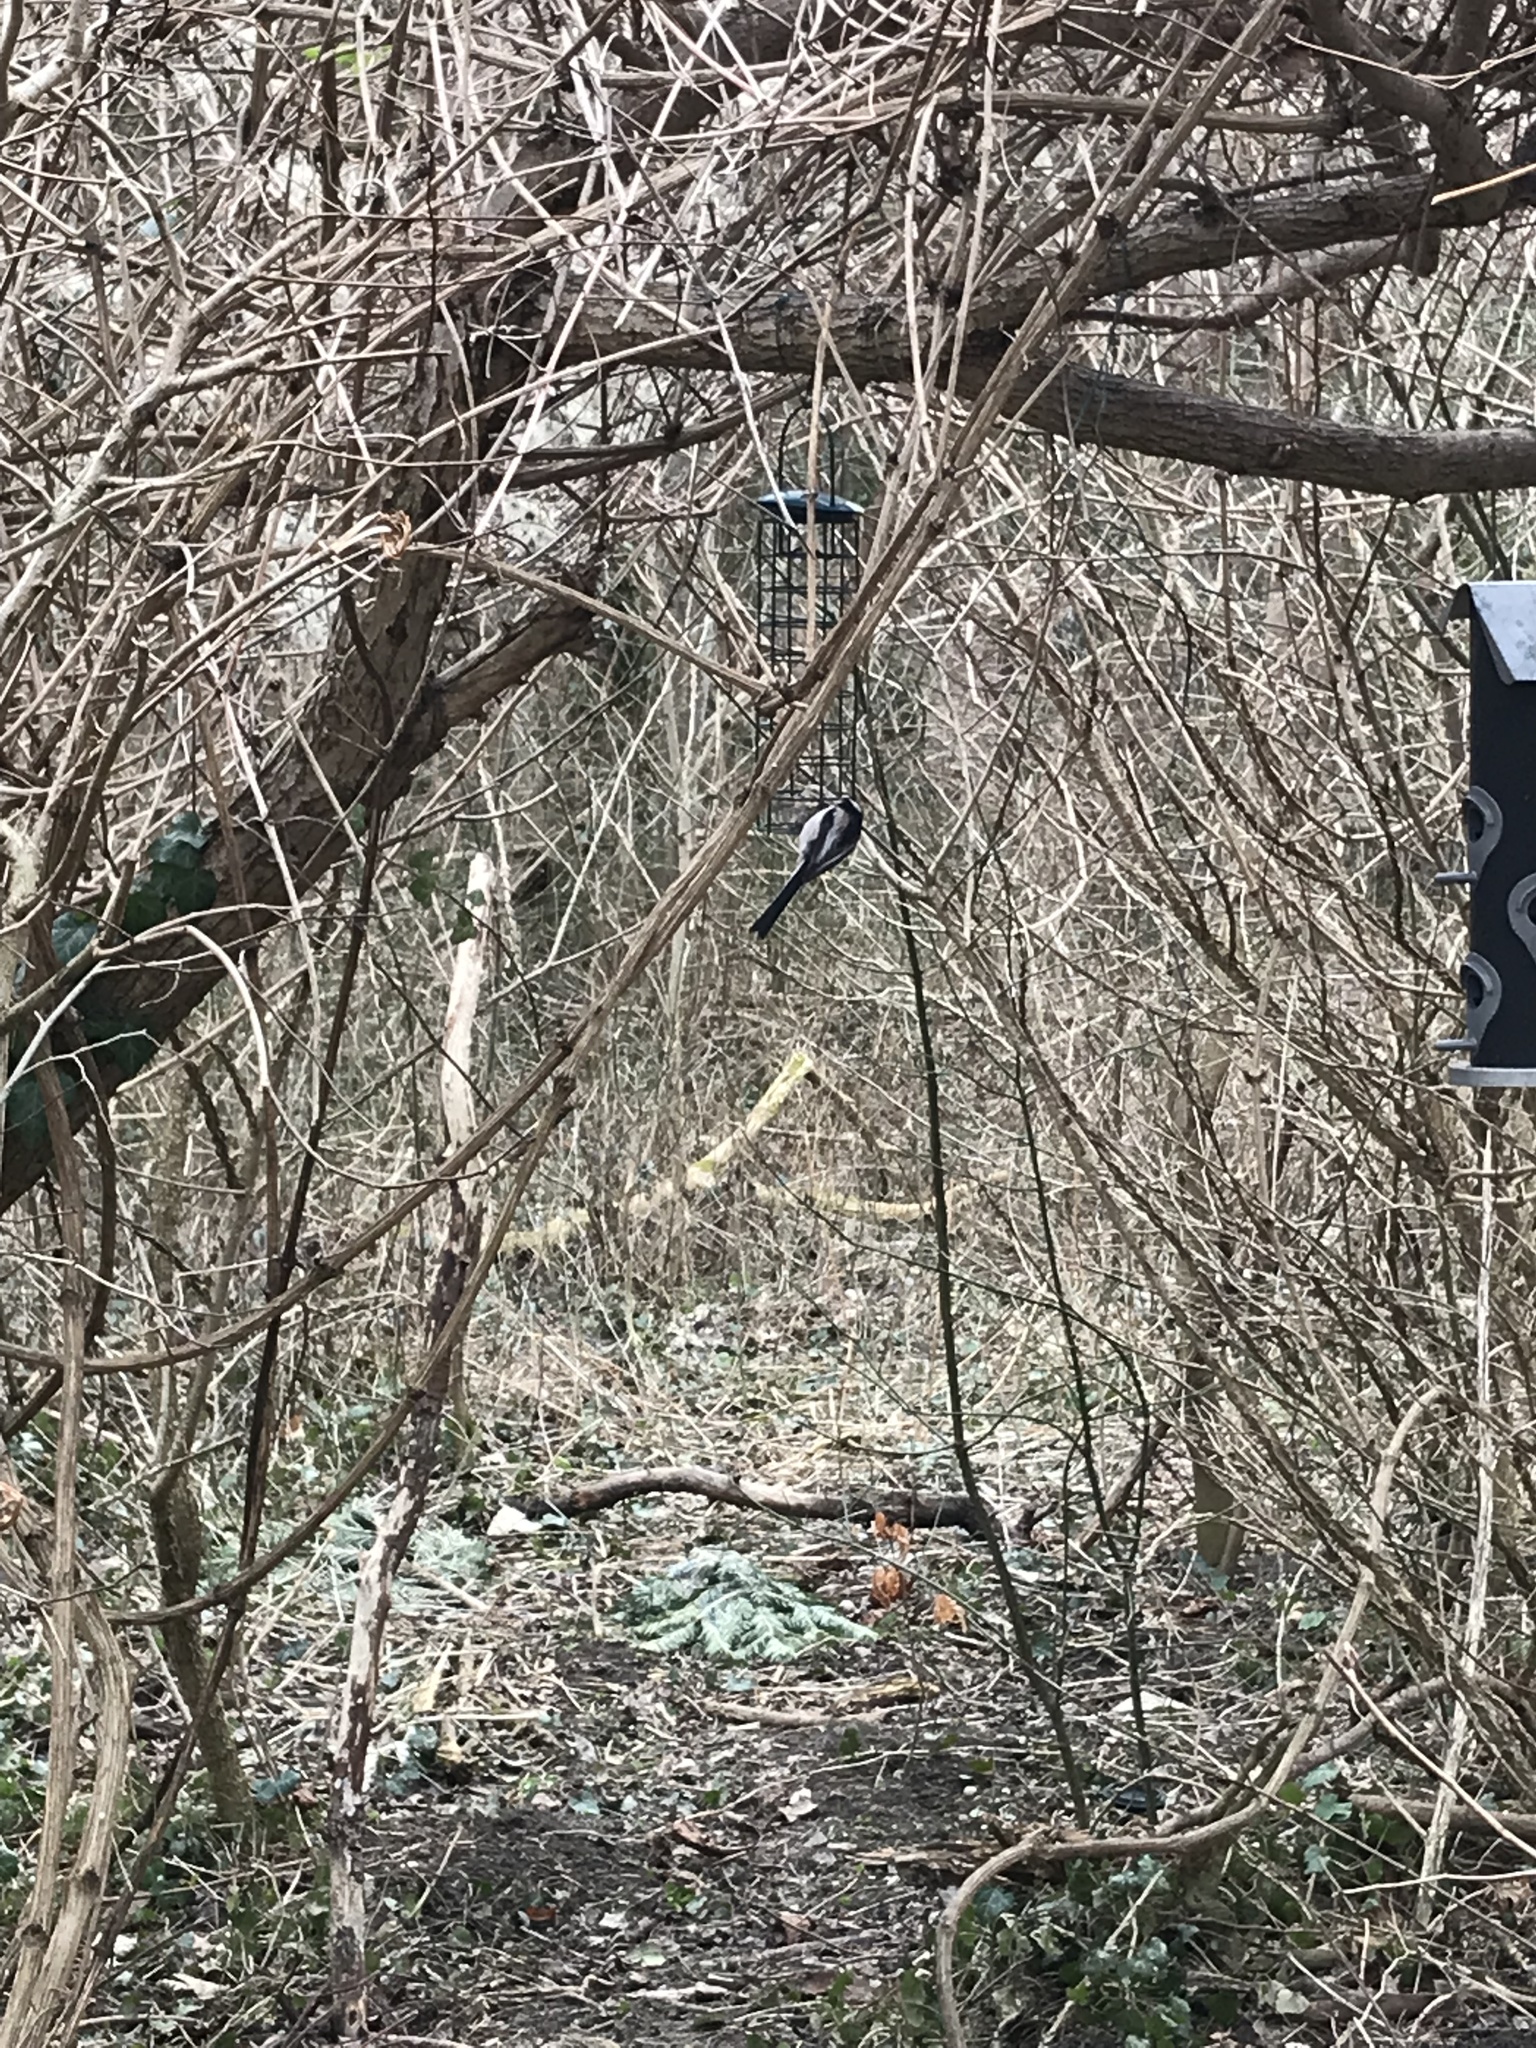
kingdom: Animalia
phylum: Chordata
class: Aves
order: Passeriformes
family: Aegithalidae
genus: Aegithalos
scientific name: Aegithalos caudatus
